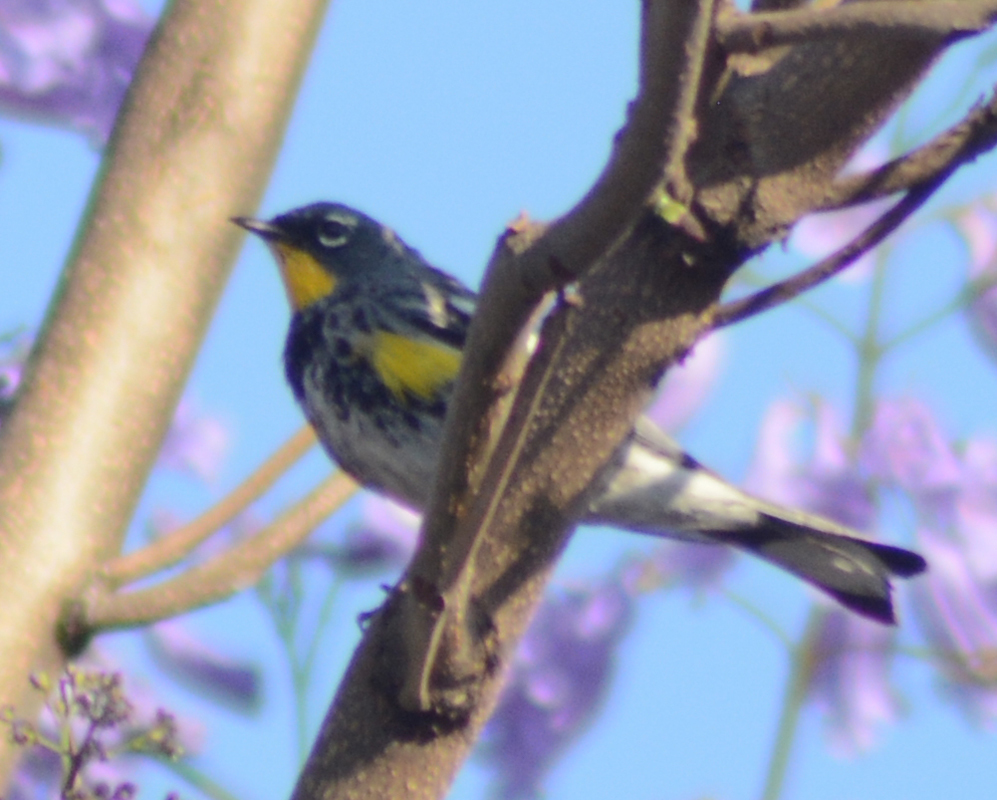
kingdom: Animalia
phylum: Chordata
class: Aves
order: Passeriformes
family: Parulidae
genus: Setophaga
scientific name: Setophaga auduboni
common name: Audubon's warbler
